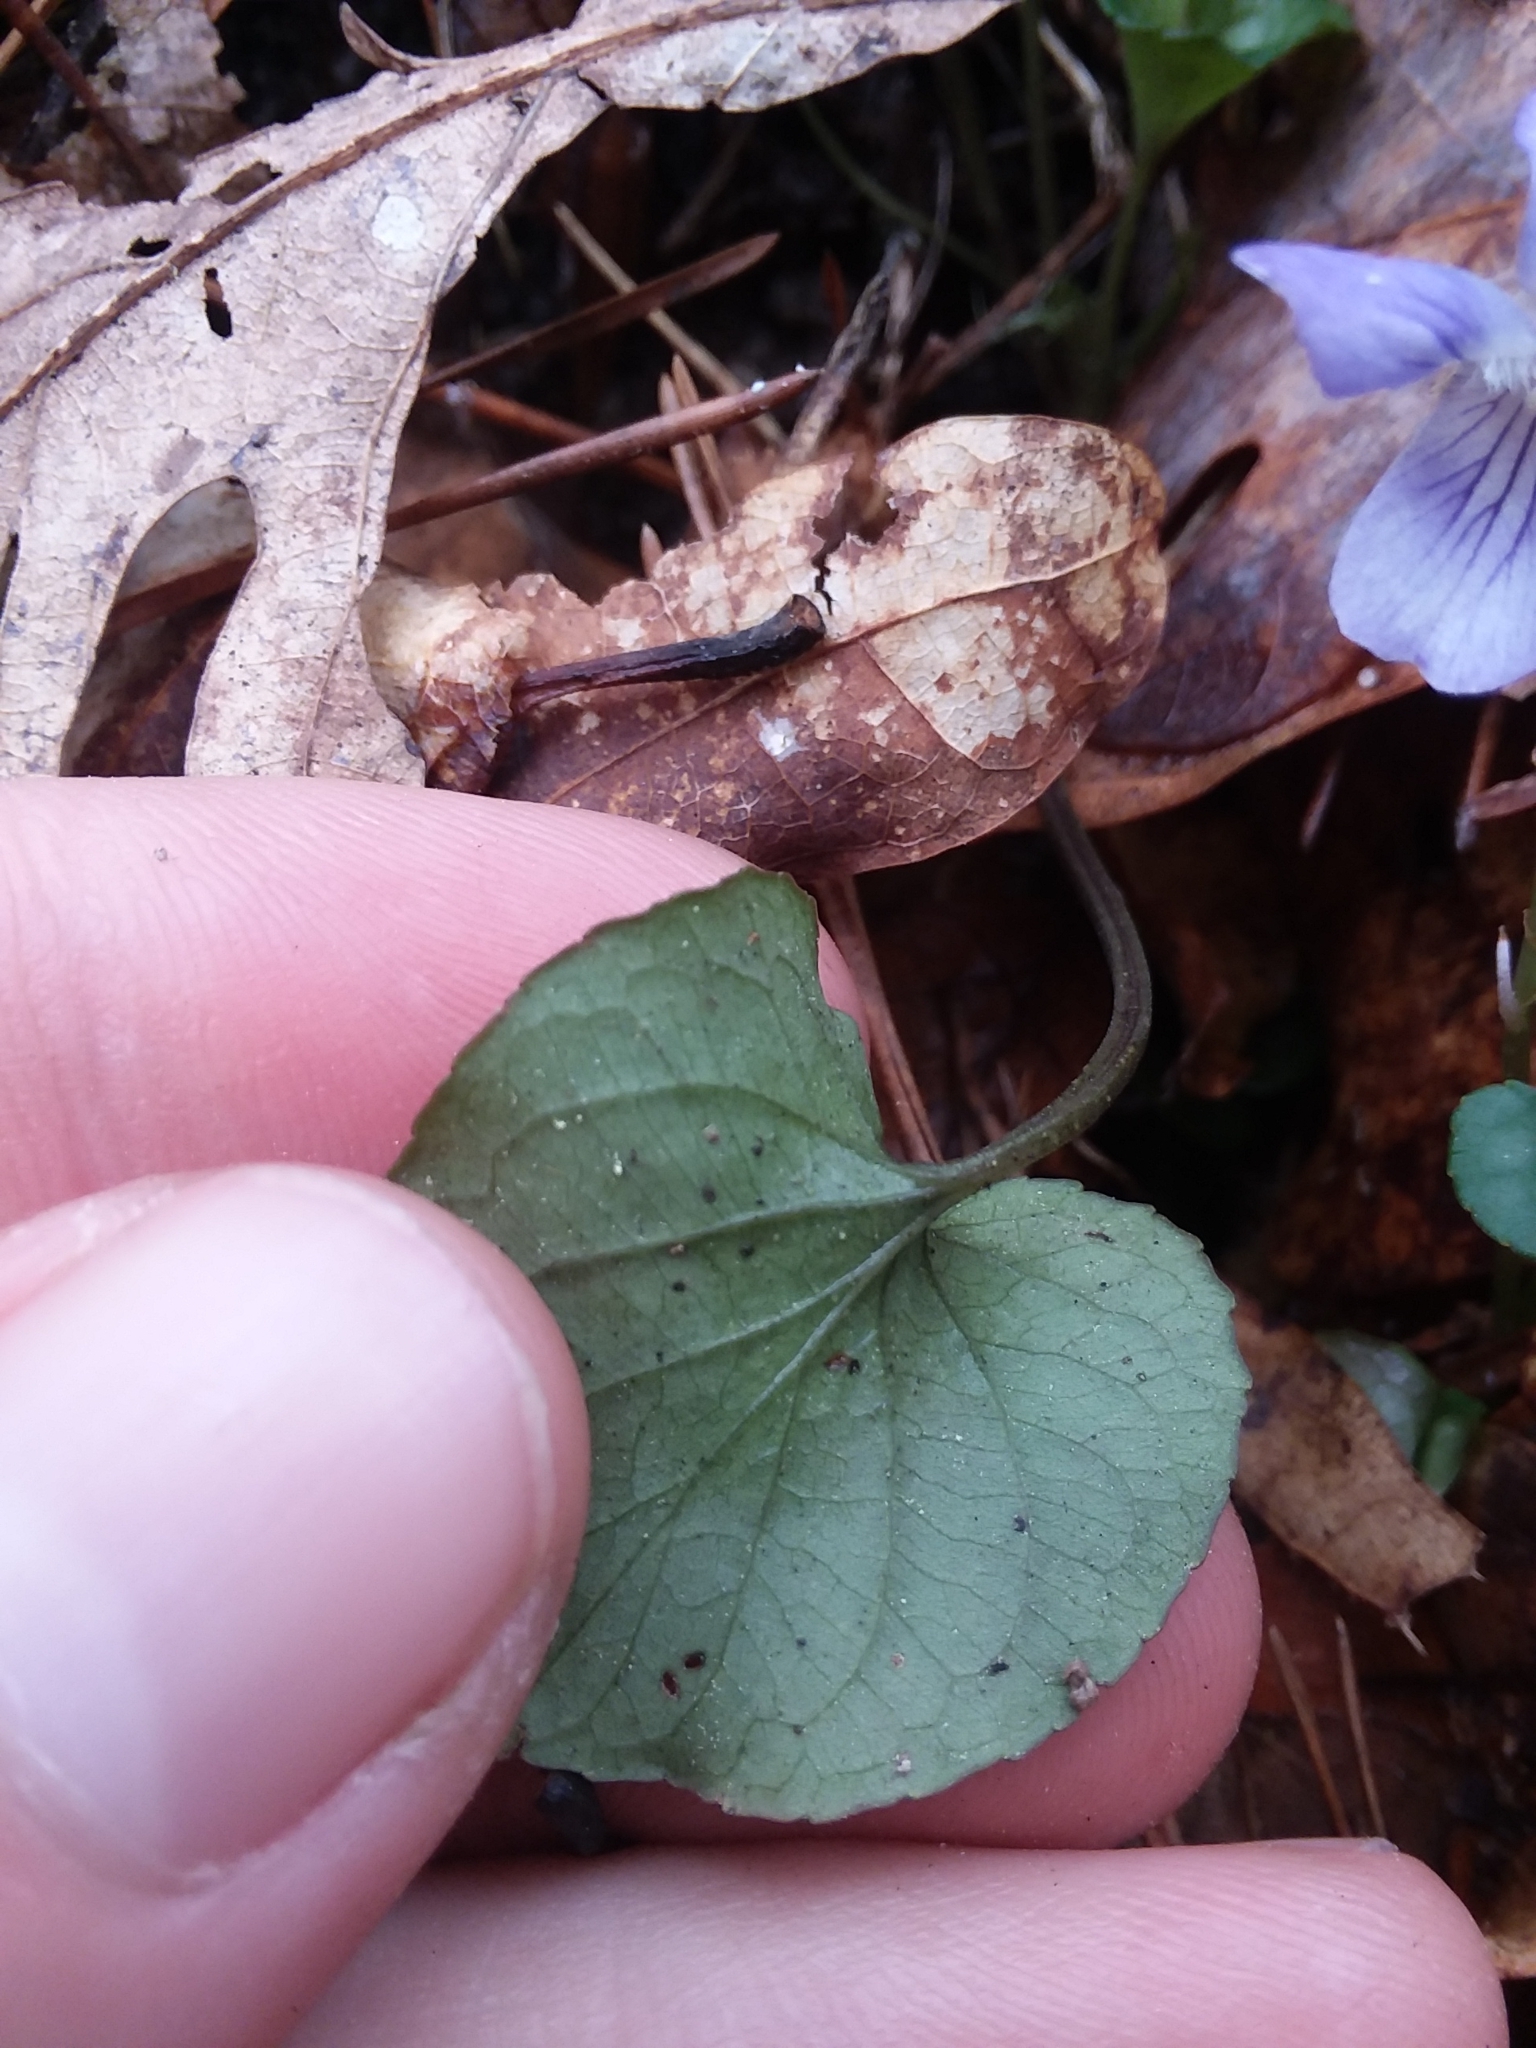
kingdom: Plantae
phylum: Tracheophyta
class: Magnoliopsida
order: Malpighiales
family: Violaceae
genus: Viola
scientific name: Viola walteri
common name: Prostrate southern violet
